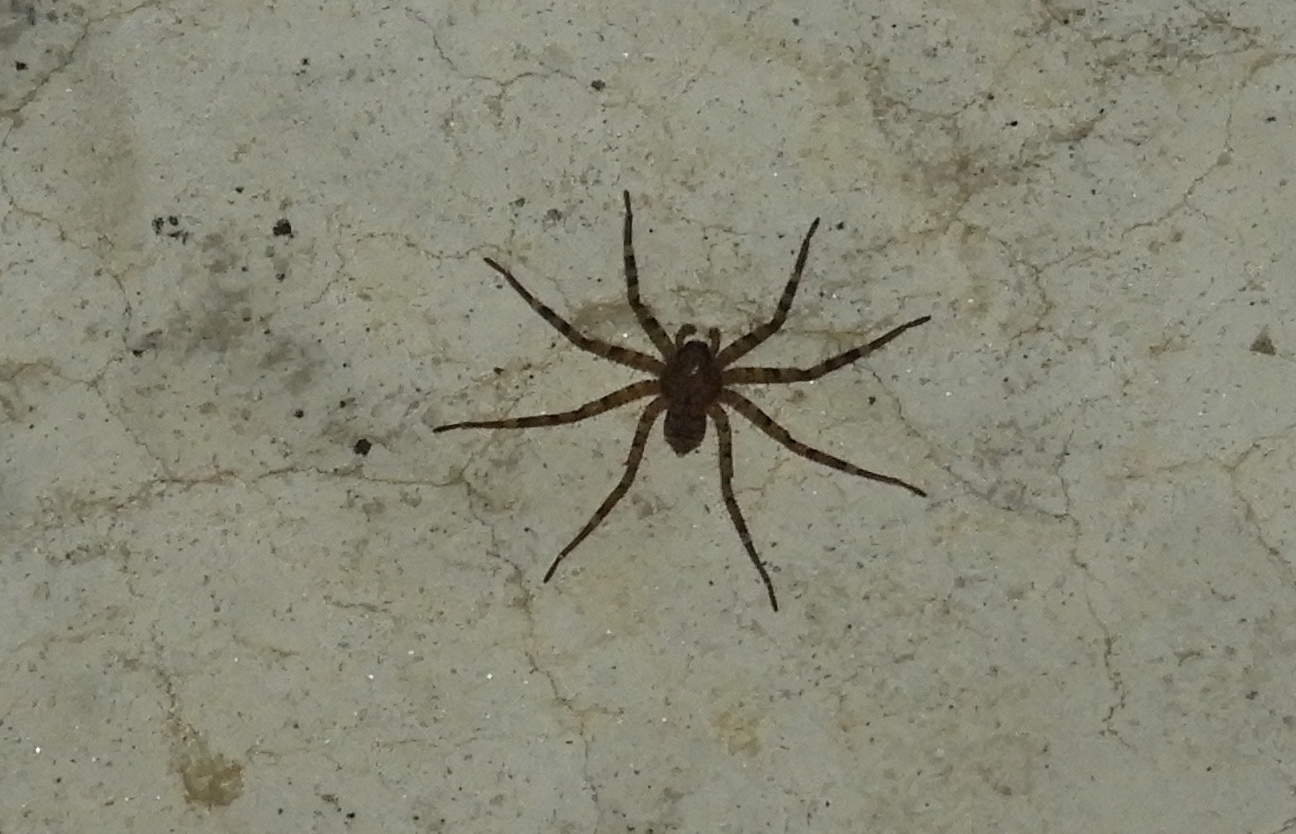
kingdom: Animalia
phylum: Arthropoda
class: Arachnida
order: Araneae
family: Selenopidae
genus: Selenops
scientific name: Selenops
